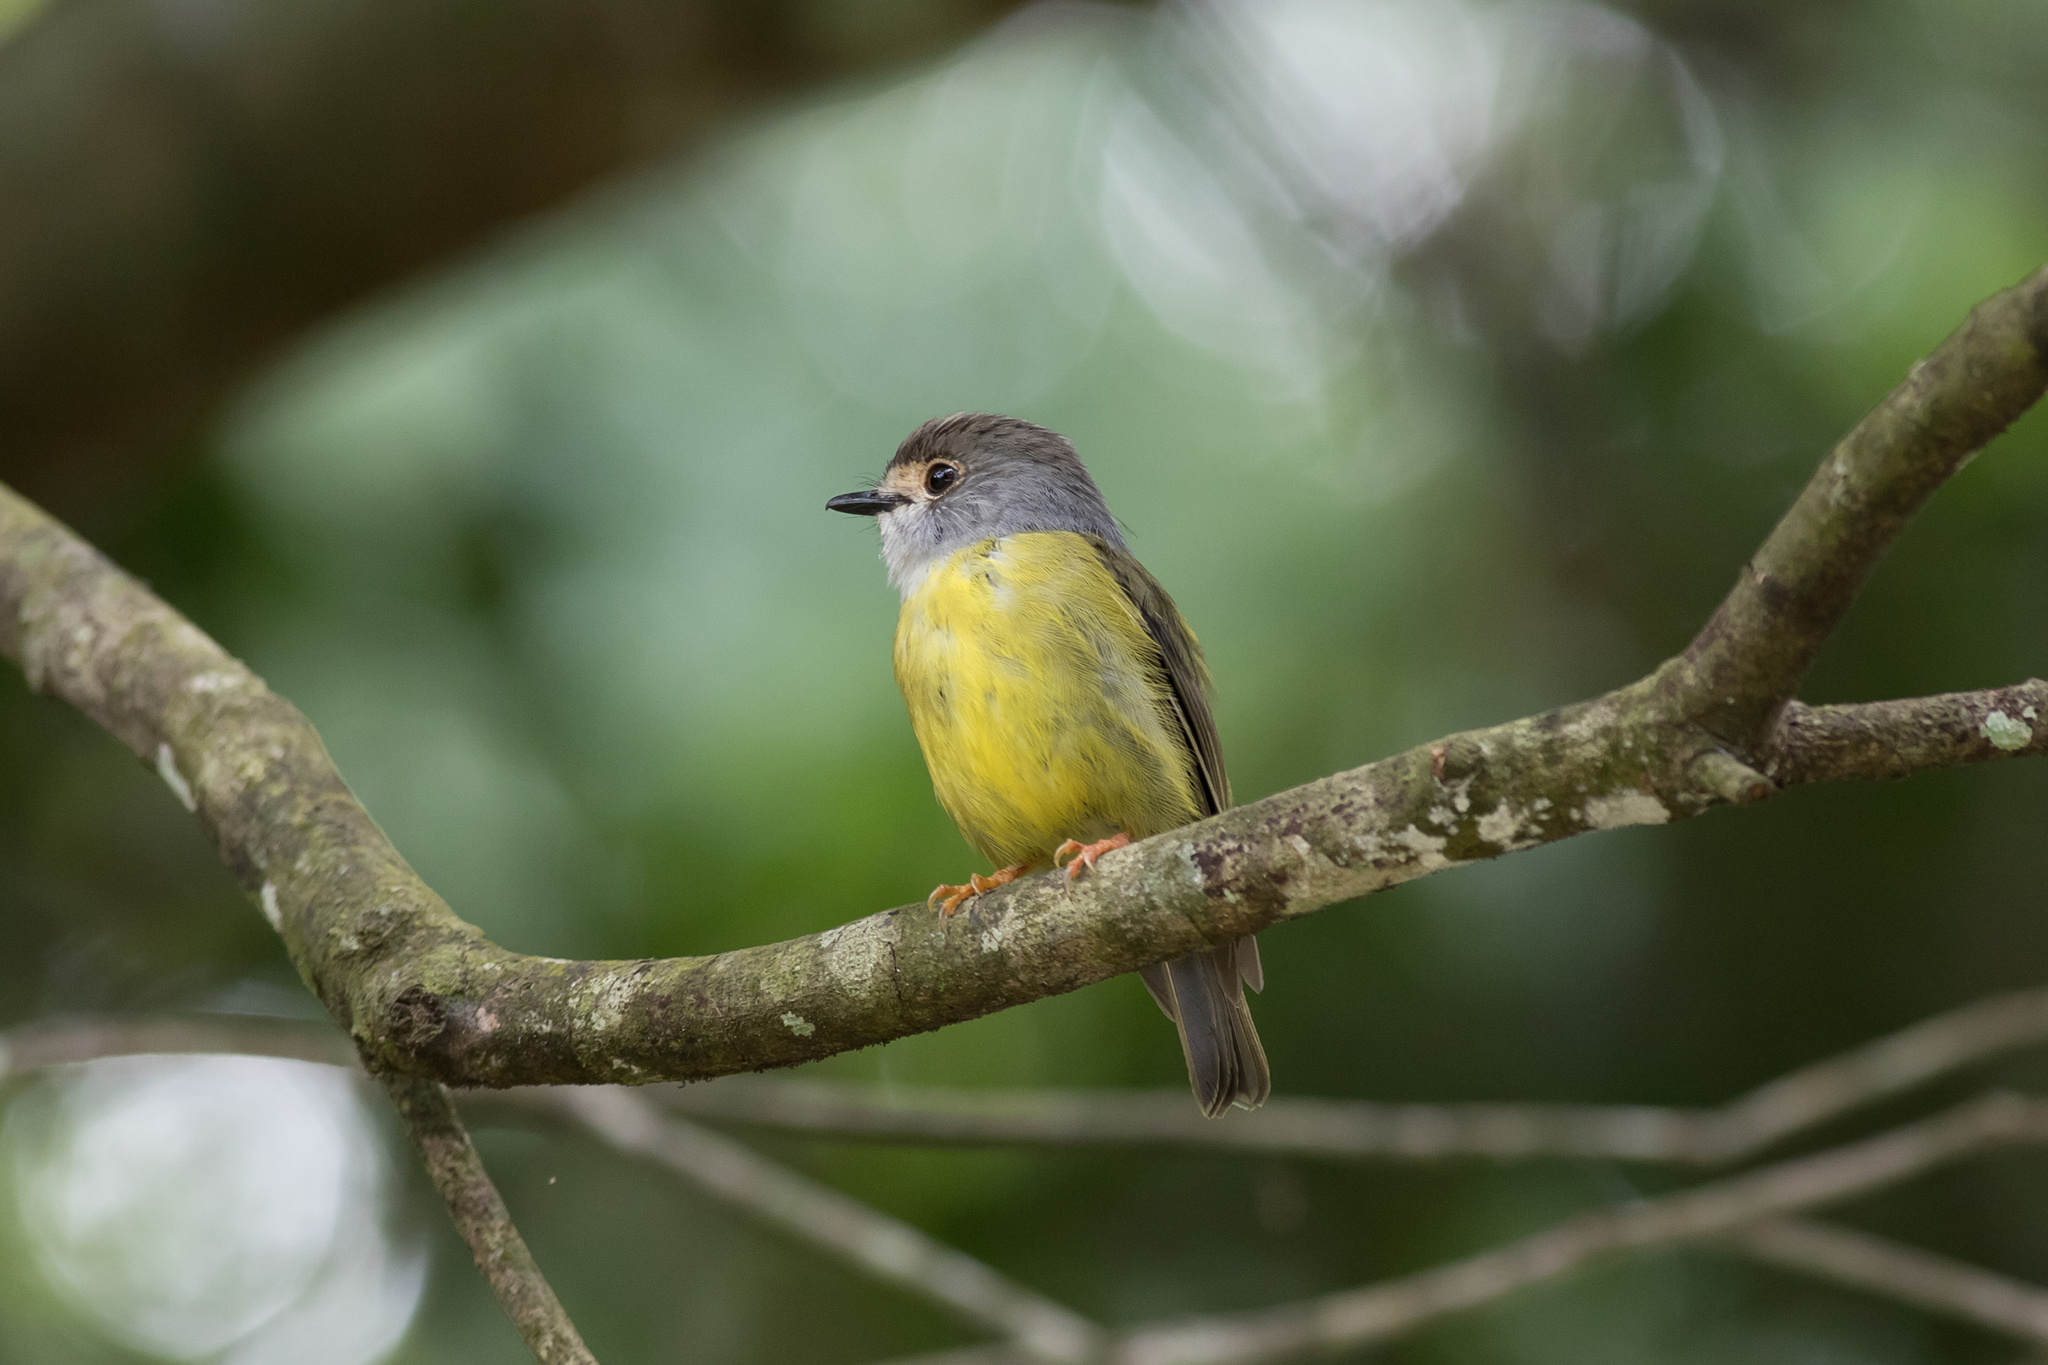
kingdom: Animalia
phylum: Chordata
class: Aves
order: Passeriformes
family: Petroicidae
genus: Eopsaltria
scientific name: Eopsaltria
